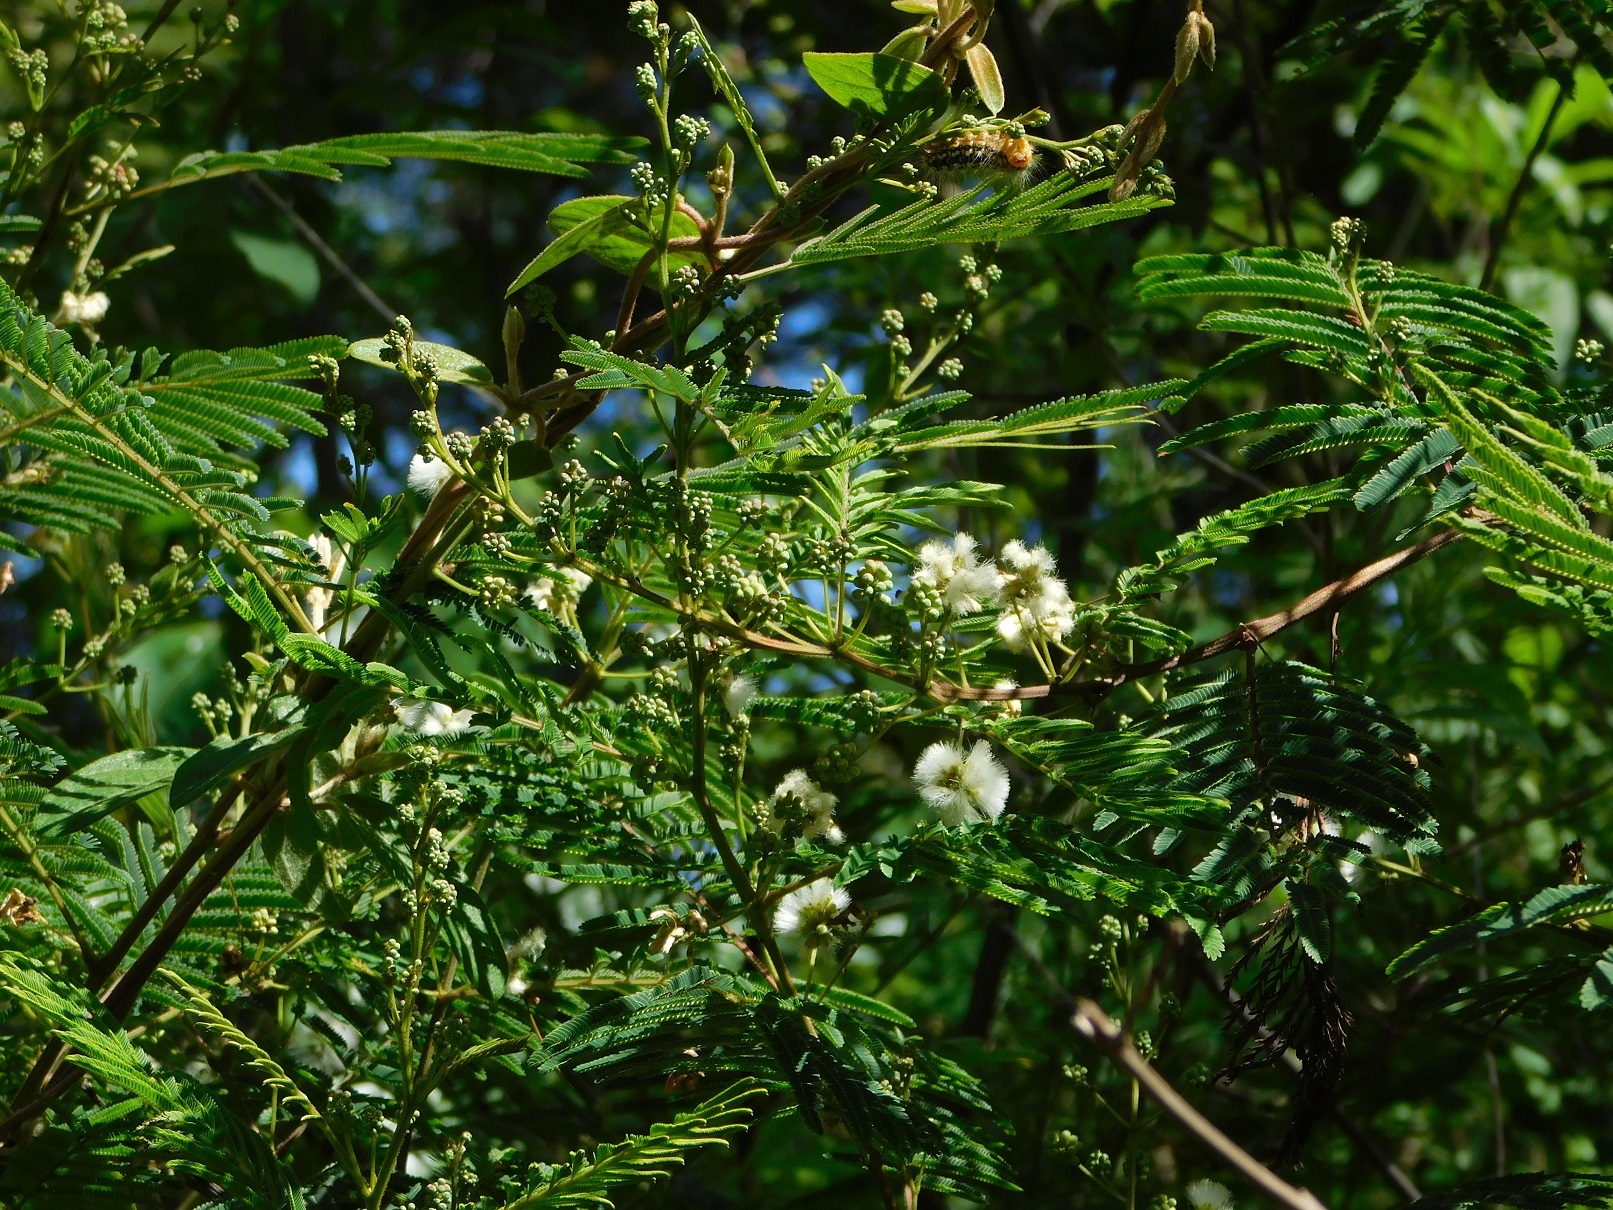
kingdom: Plantae
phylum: Tracheophyta
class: Magnoliopsida
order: Fabales
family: Fabaceae
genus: Acaciella
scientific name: Acaciella angustissima
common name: Prairie acacia
